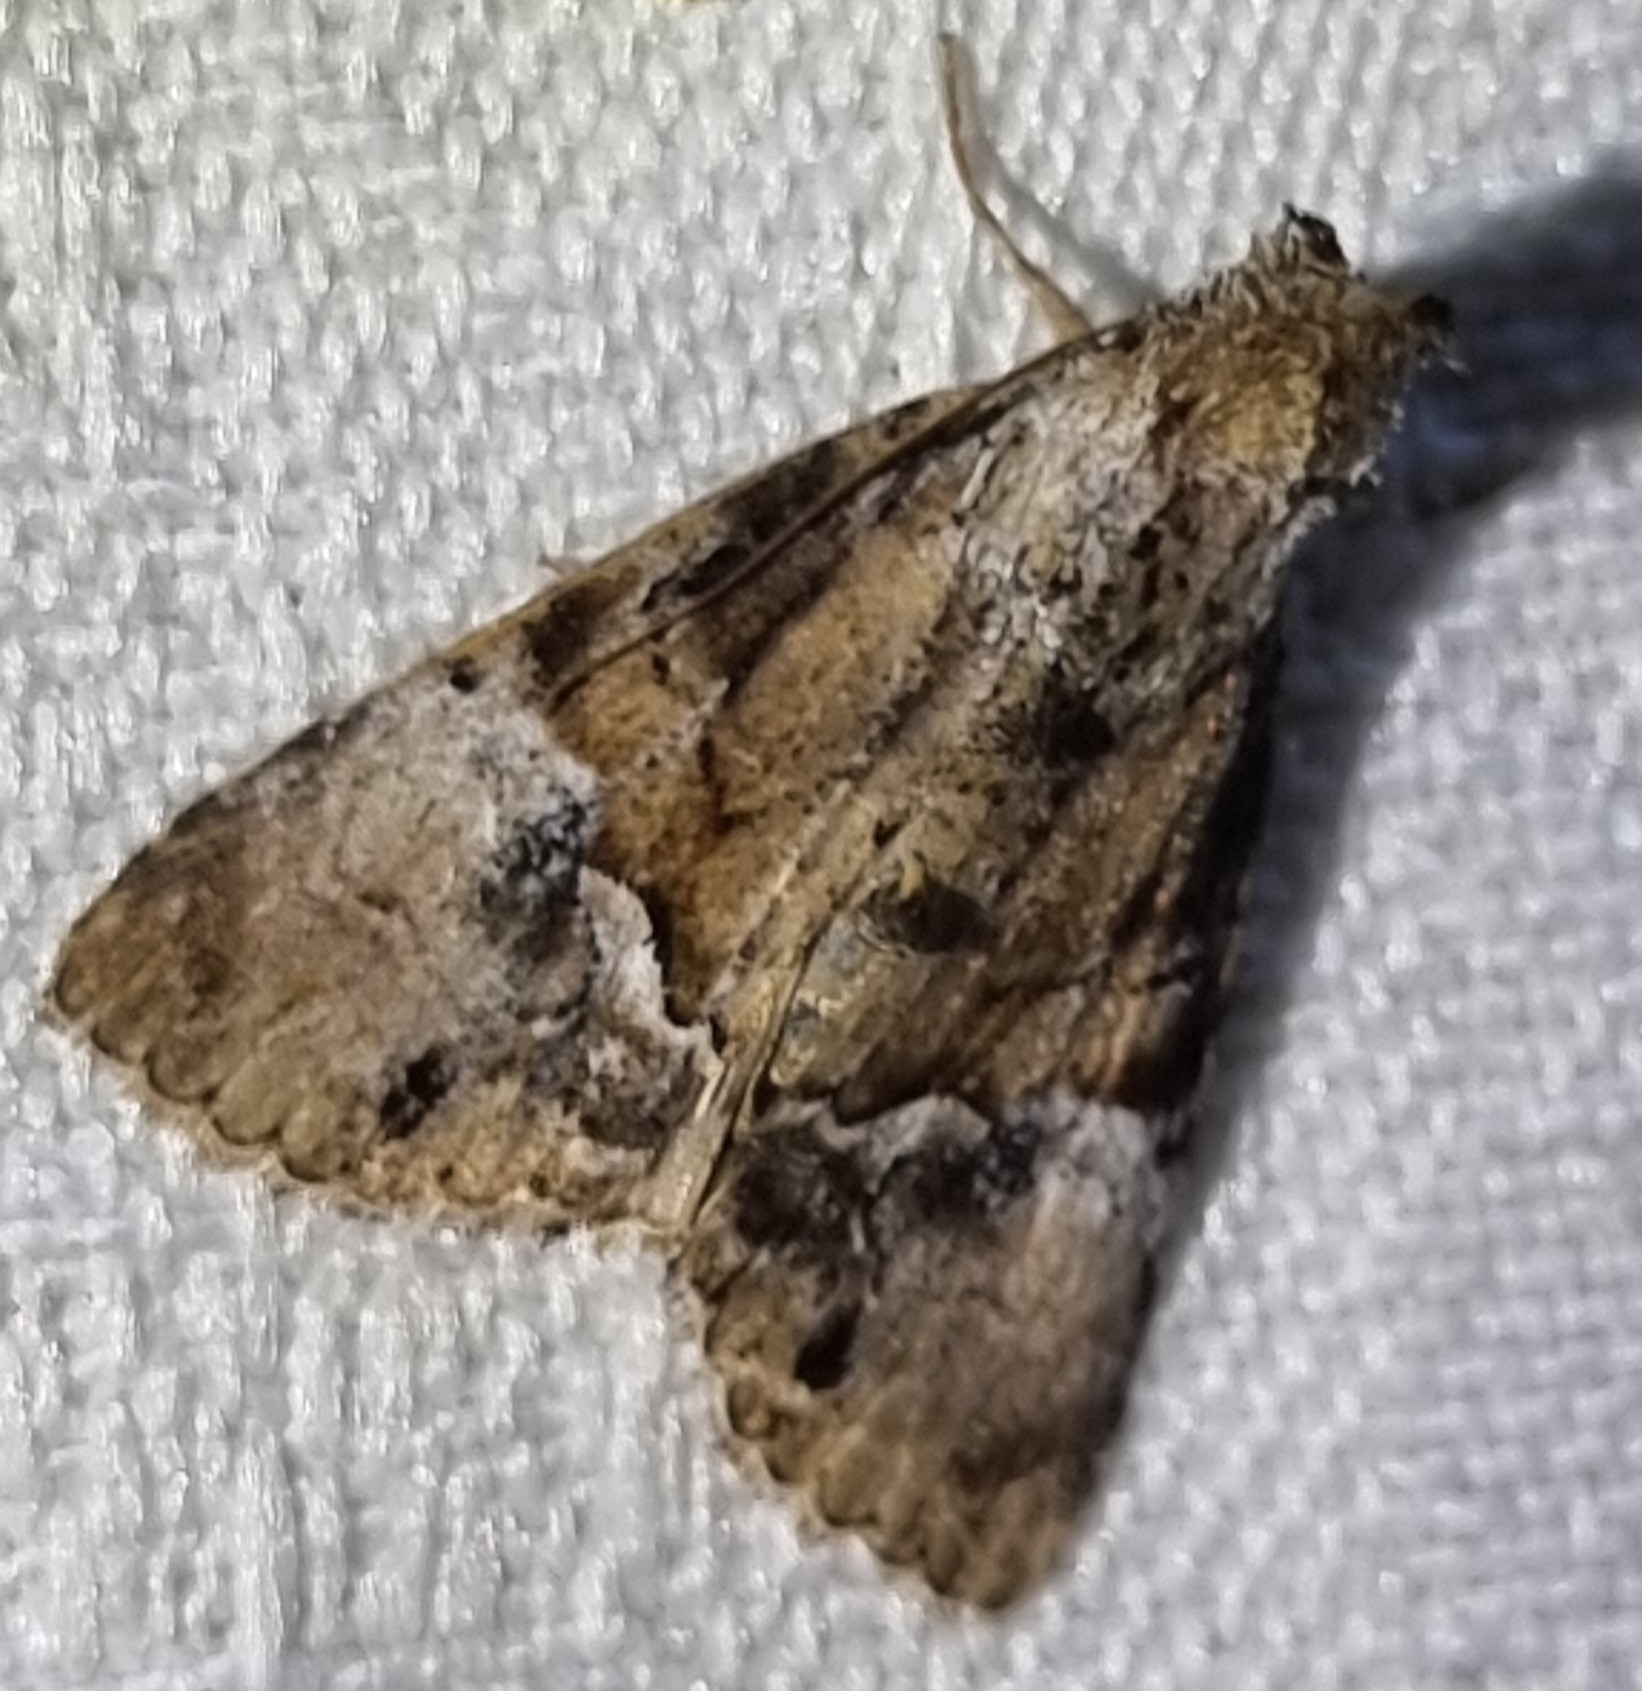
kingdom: Animalia
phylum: Arthropoda
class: Insecta
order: Lepidoptera
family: Erebidae
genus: Alophosoma
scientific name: Alophosoma emmelopis
